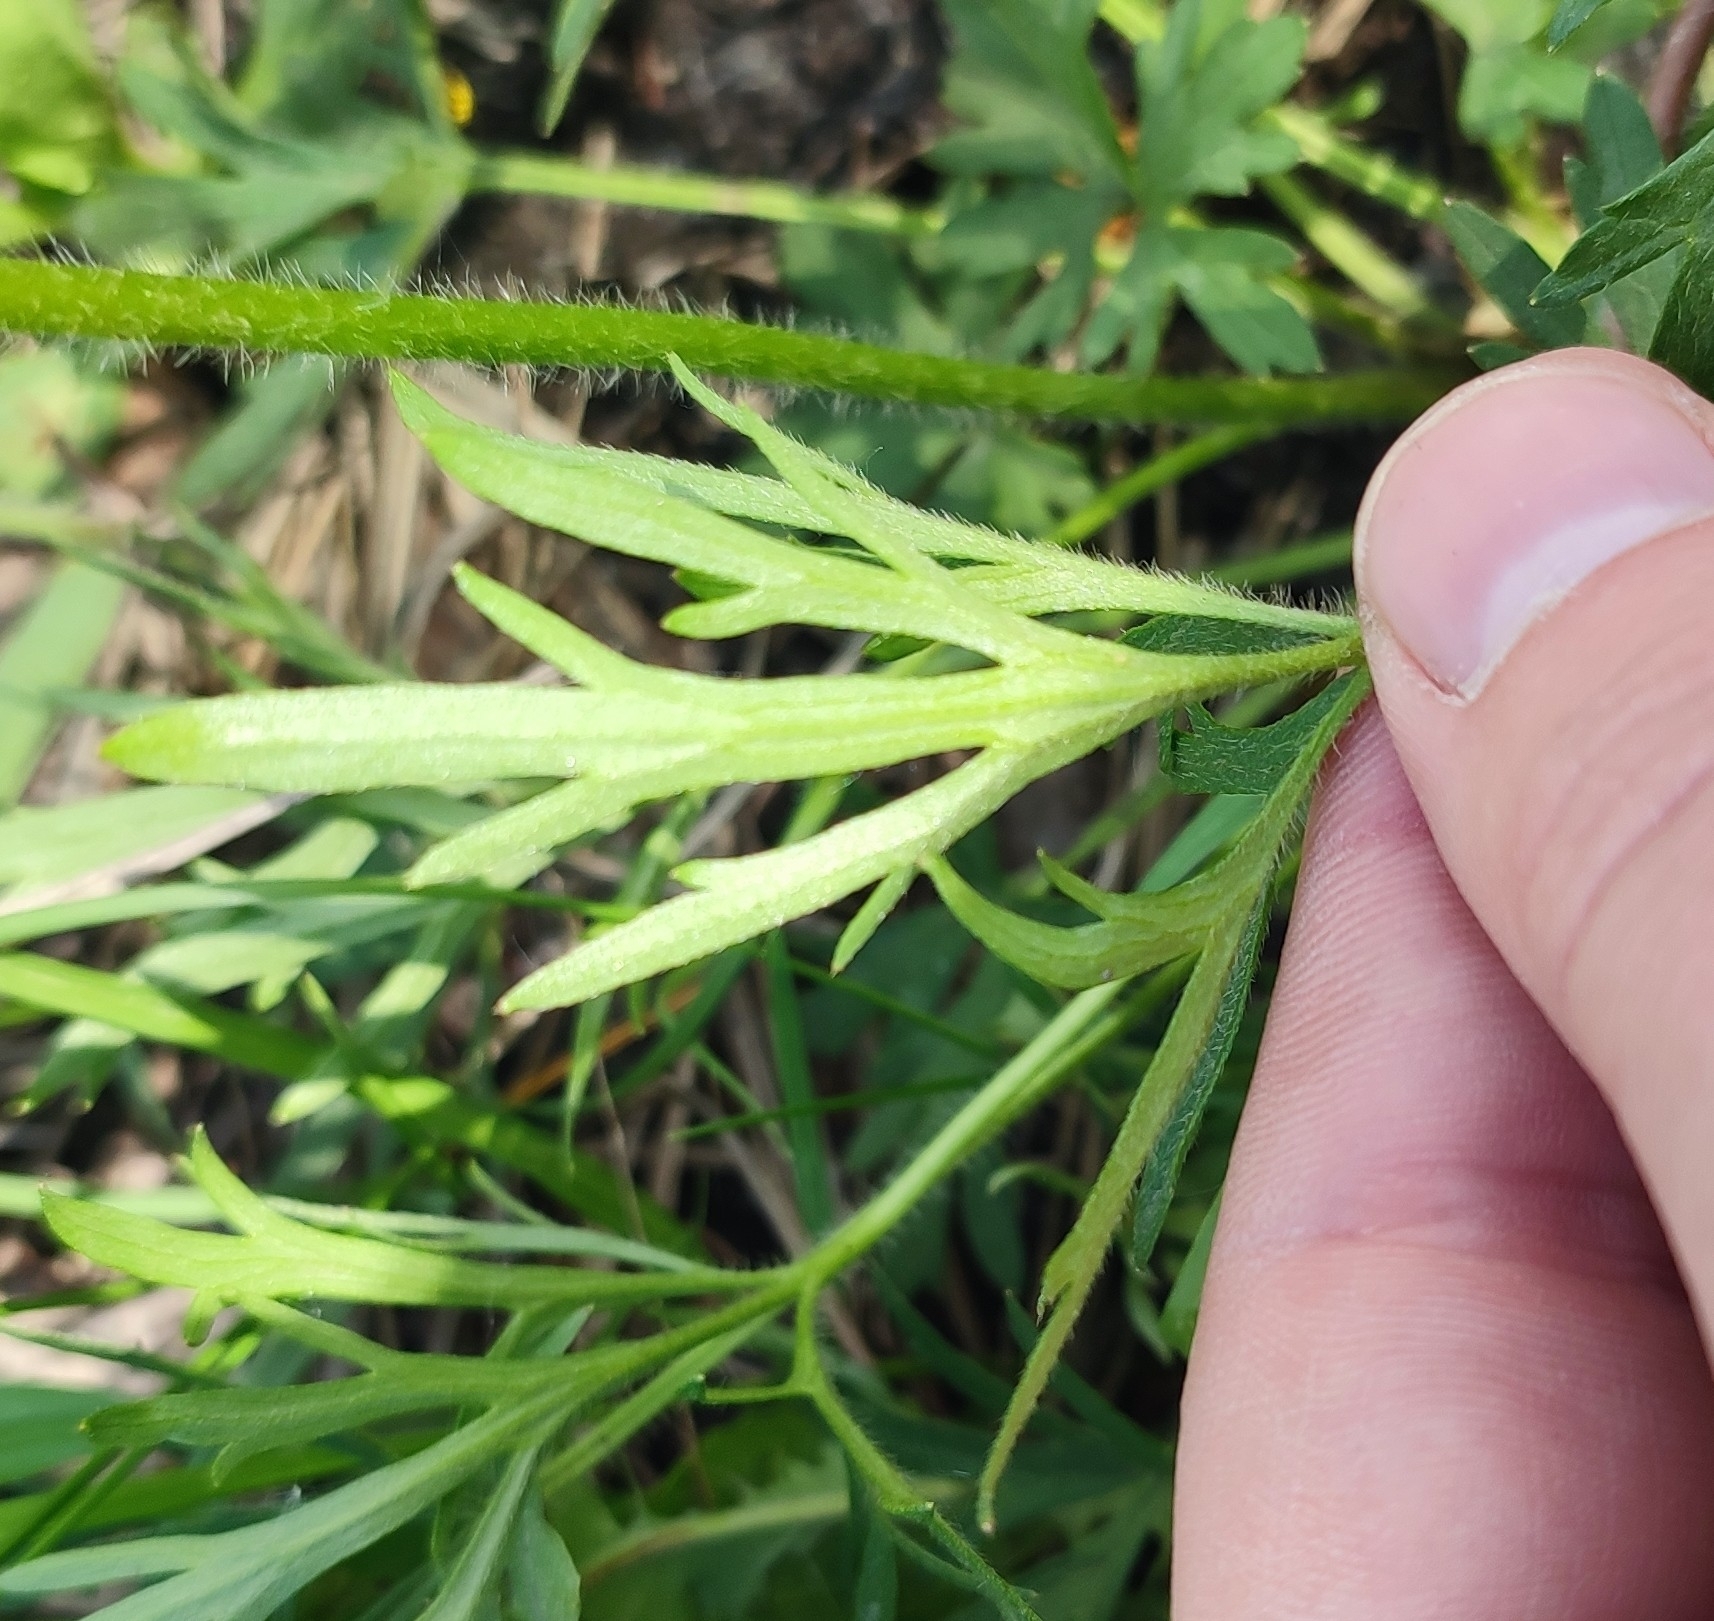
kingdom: Plantae
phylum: Tracheophyta
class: Magnoliopsida
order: Ranunculales
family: Ranunculaceae
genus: Ranunculus
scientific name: Ranunculus polyanthemos
